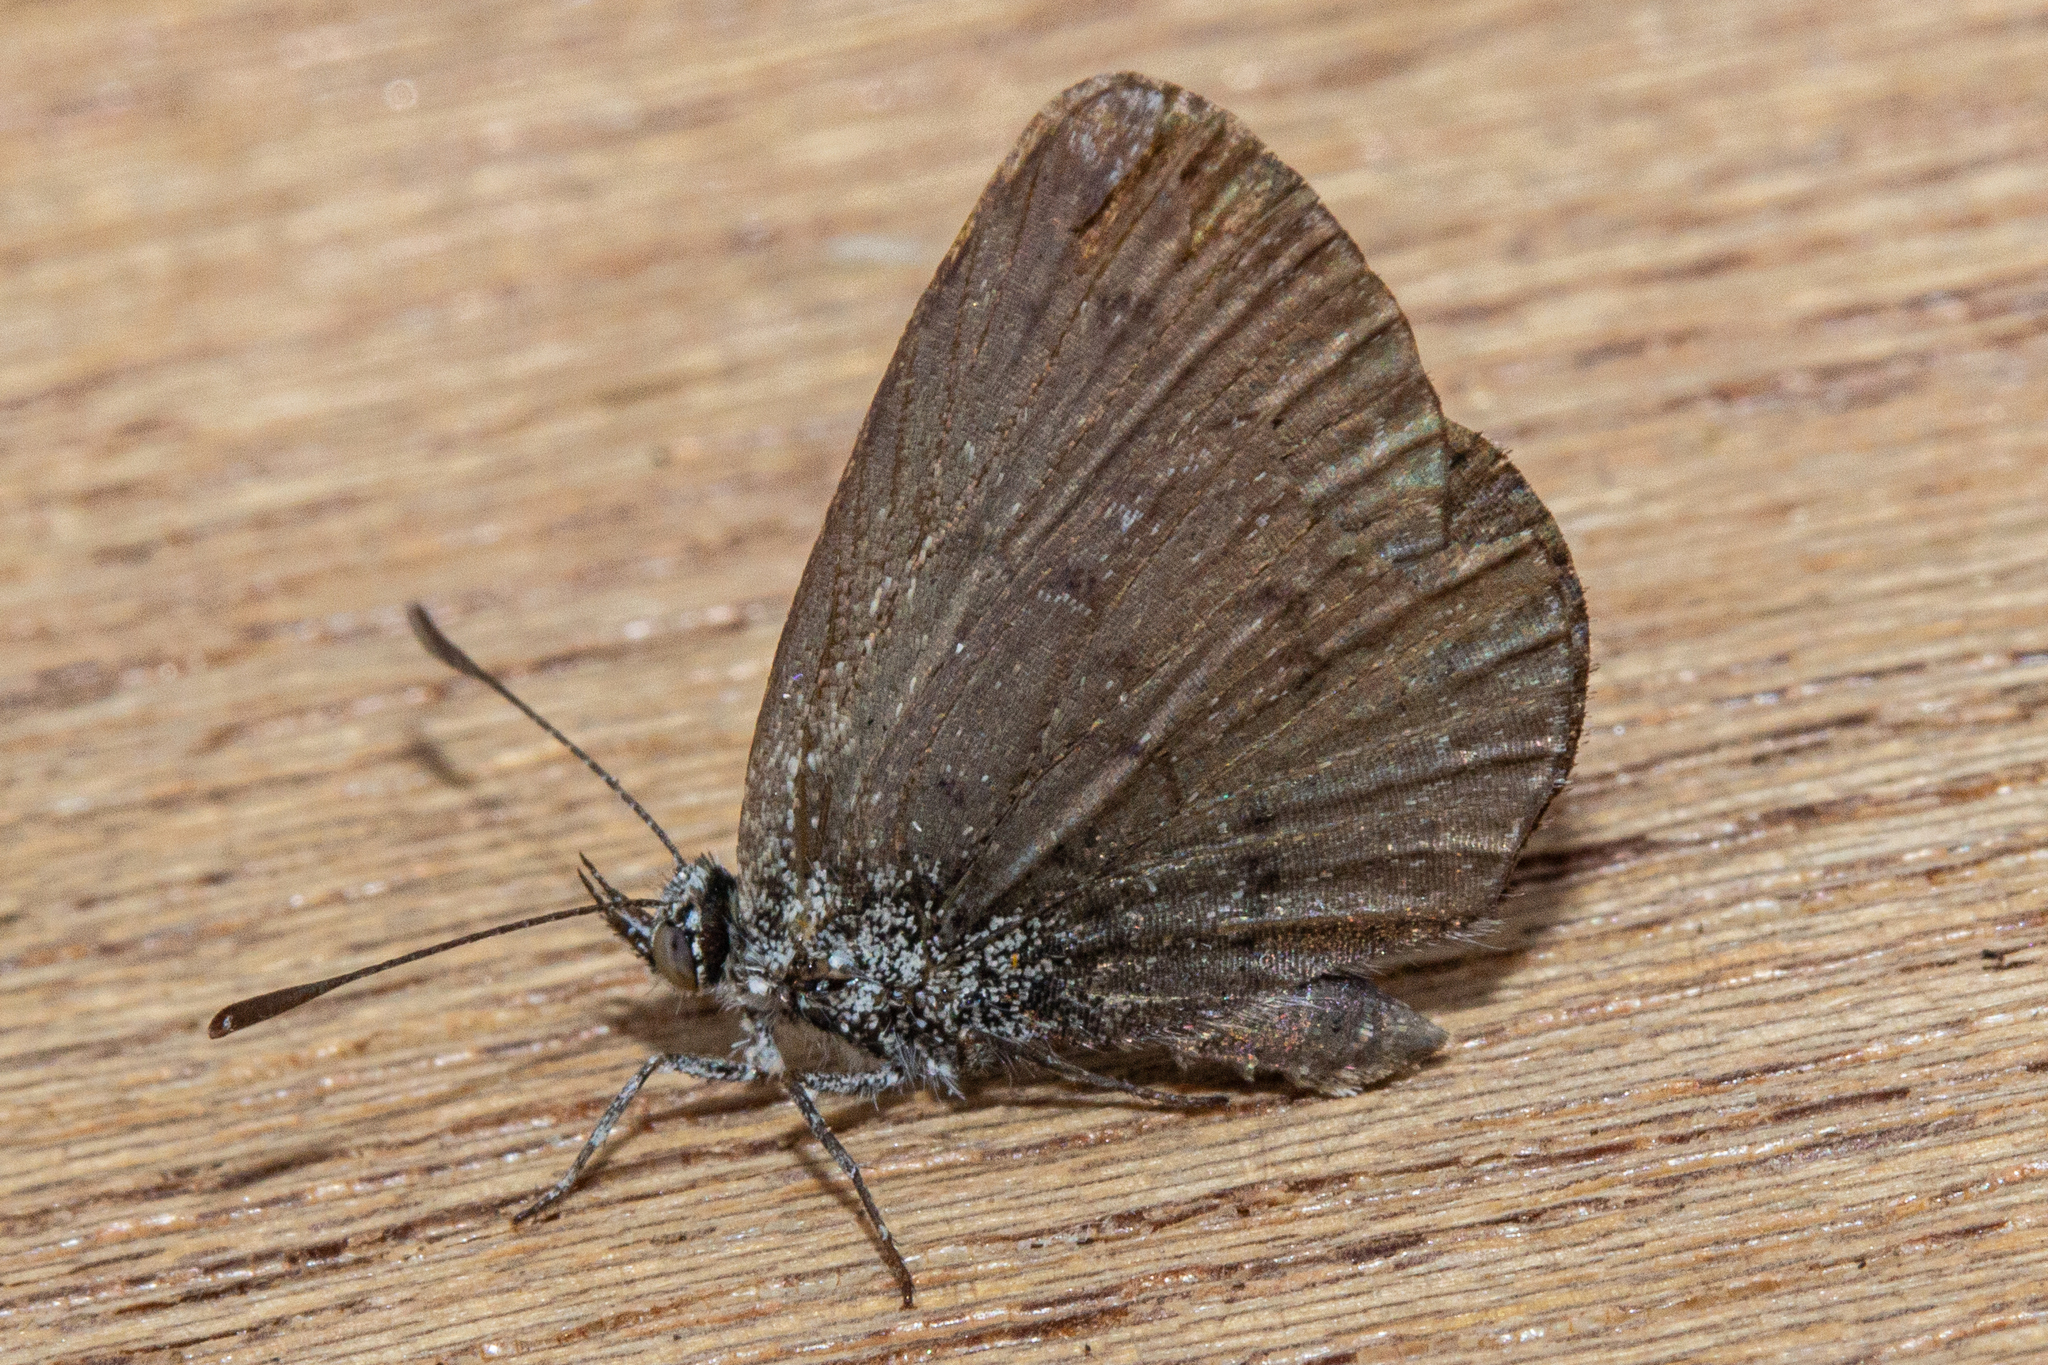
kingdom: Animalia
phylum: Arthropoda
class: Insecta
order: Lepidoptera
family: Lycaenidae
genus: Zizina
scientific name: Zizina oxleyi
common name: Southern blue
